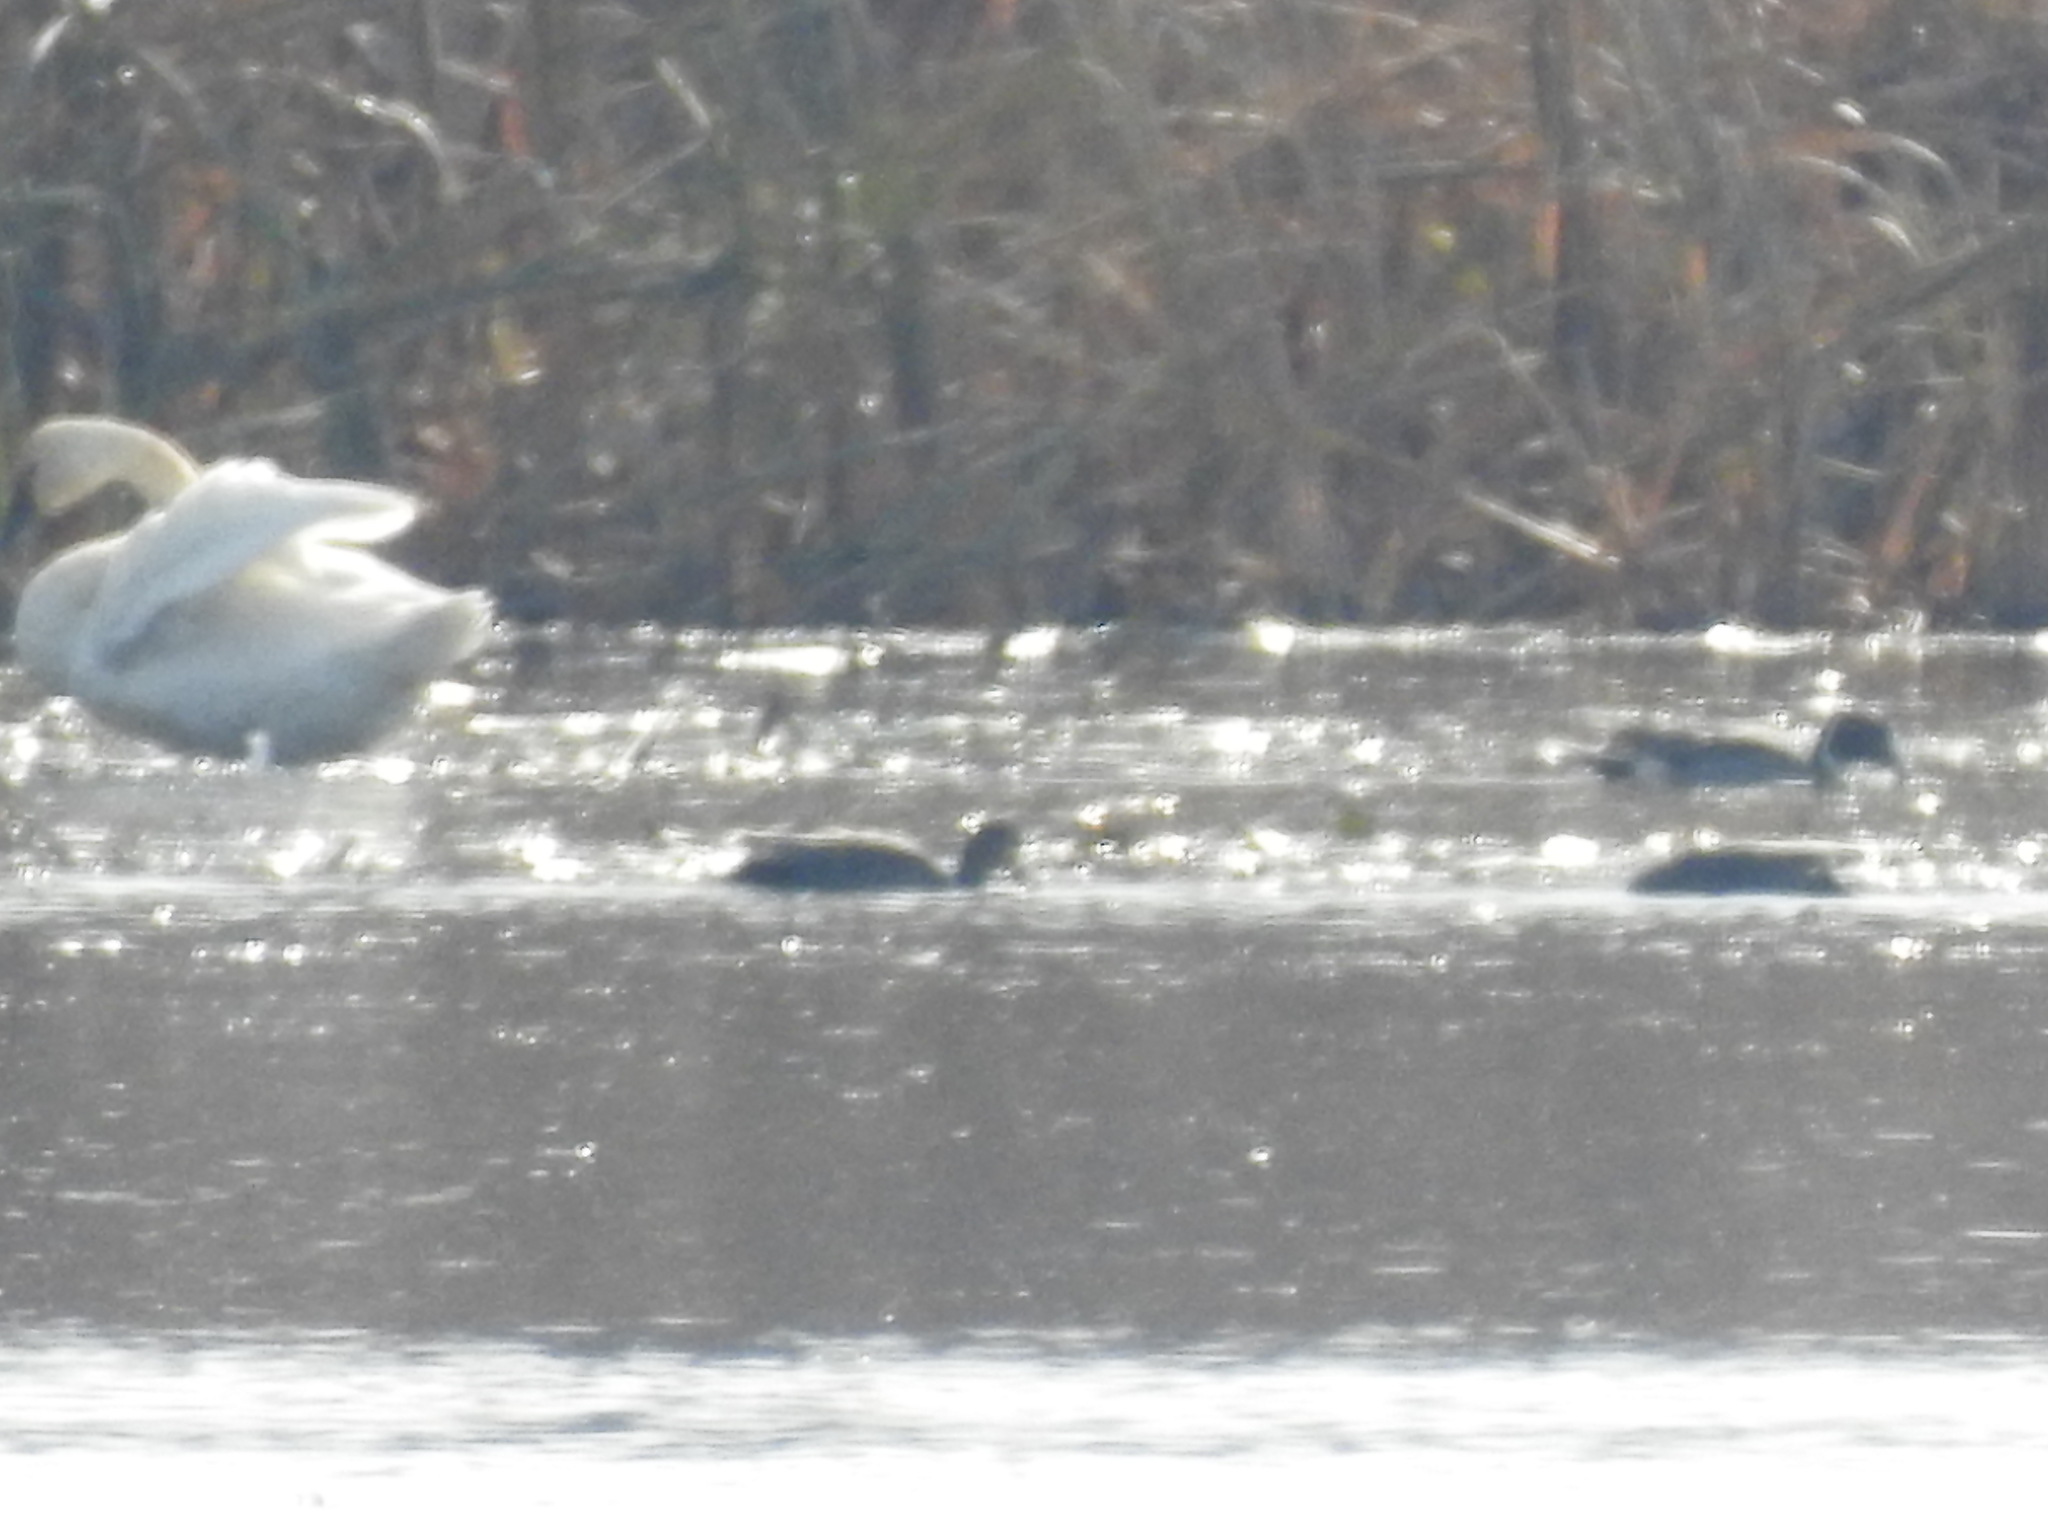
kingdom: Animalia
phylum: Chordata
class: Aves
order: Anseriformes
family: Anatidae
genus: Cygnus
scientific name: Cygnus columbianus
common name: Tundra swan
